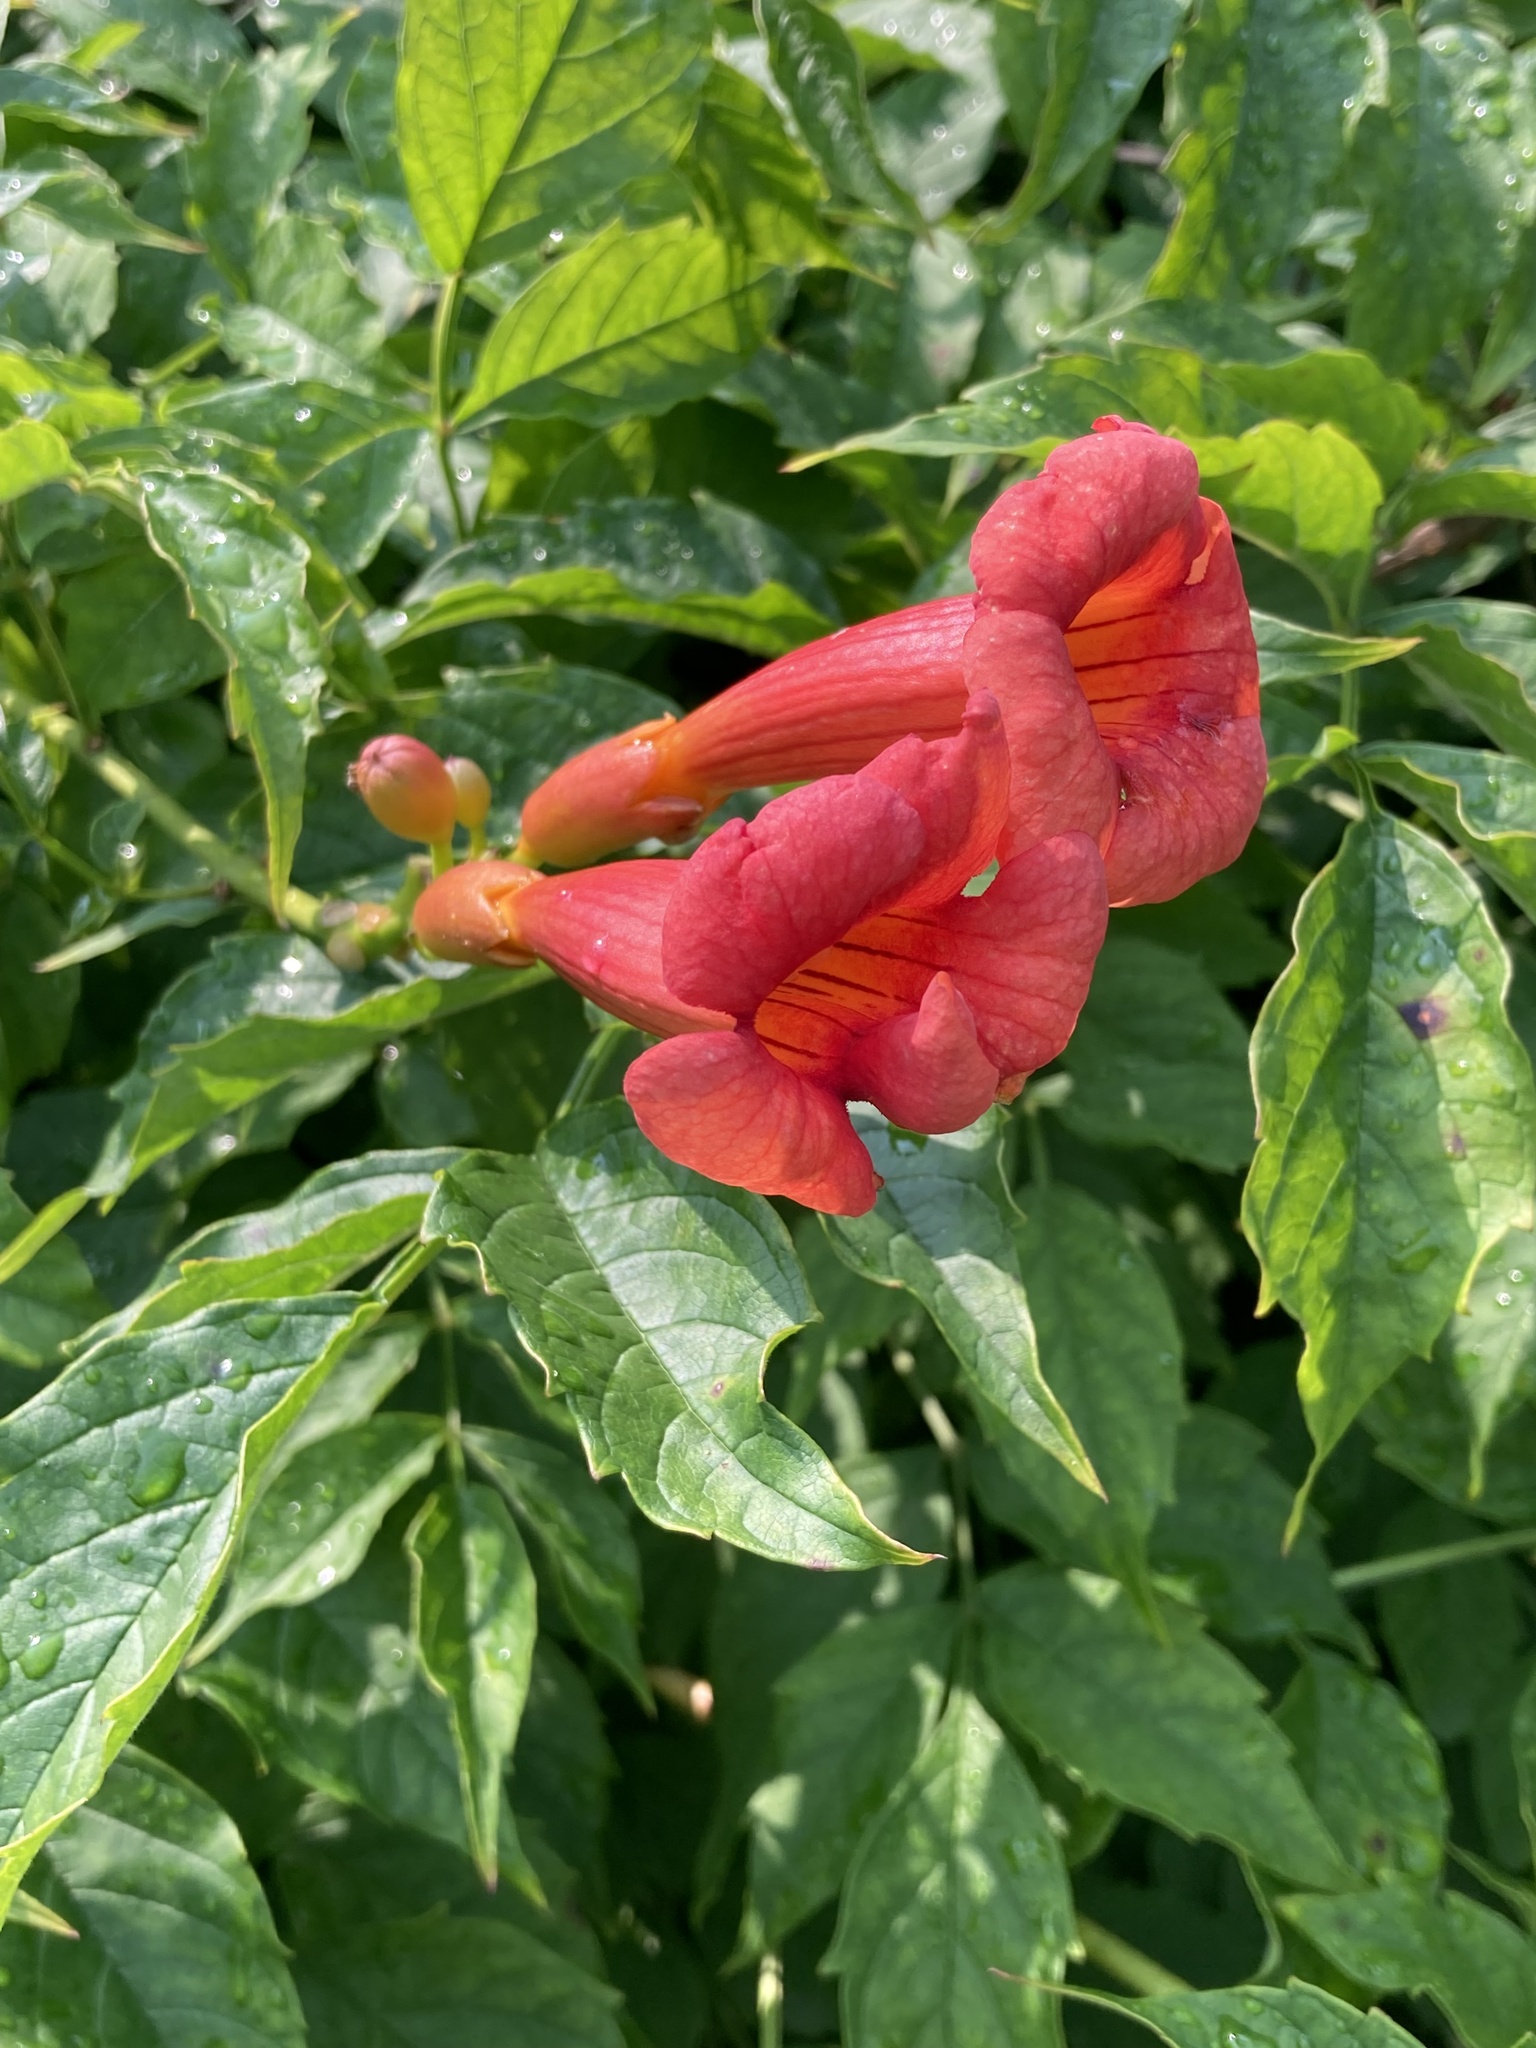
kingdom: Plantae
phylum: Tracheophyta
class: Magnoliopsida
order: Lamiales
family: Bignoniaceae
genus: Campsis
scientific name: Campsis radicans
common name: Trumpet-creeper
